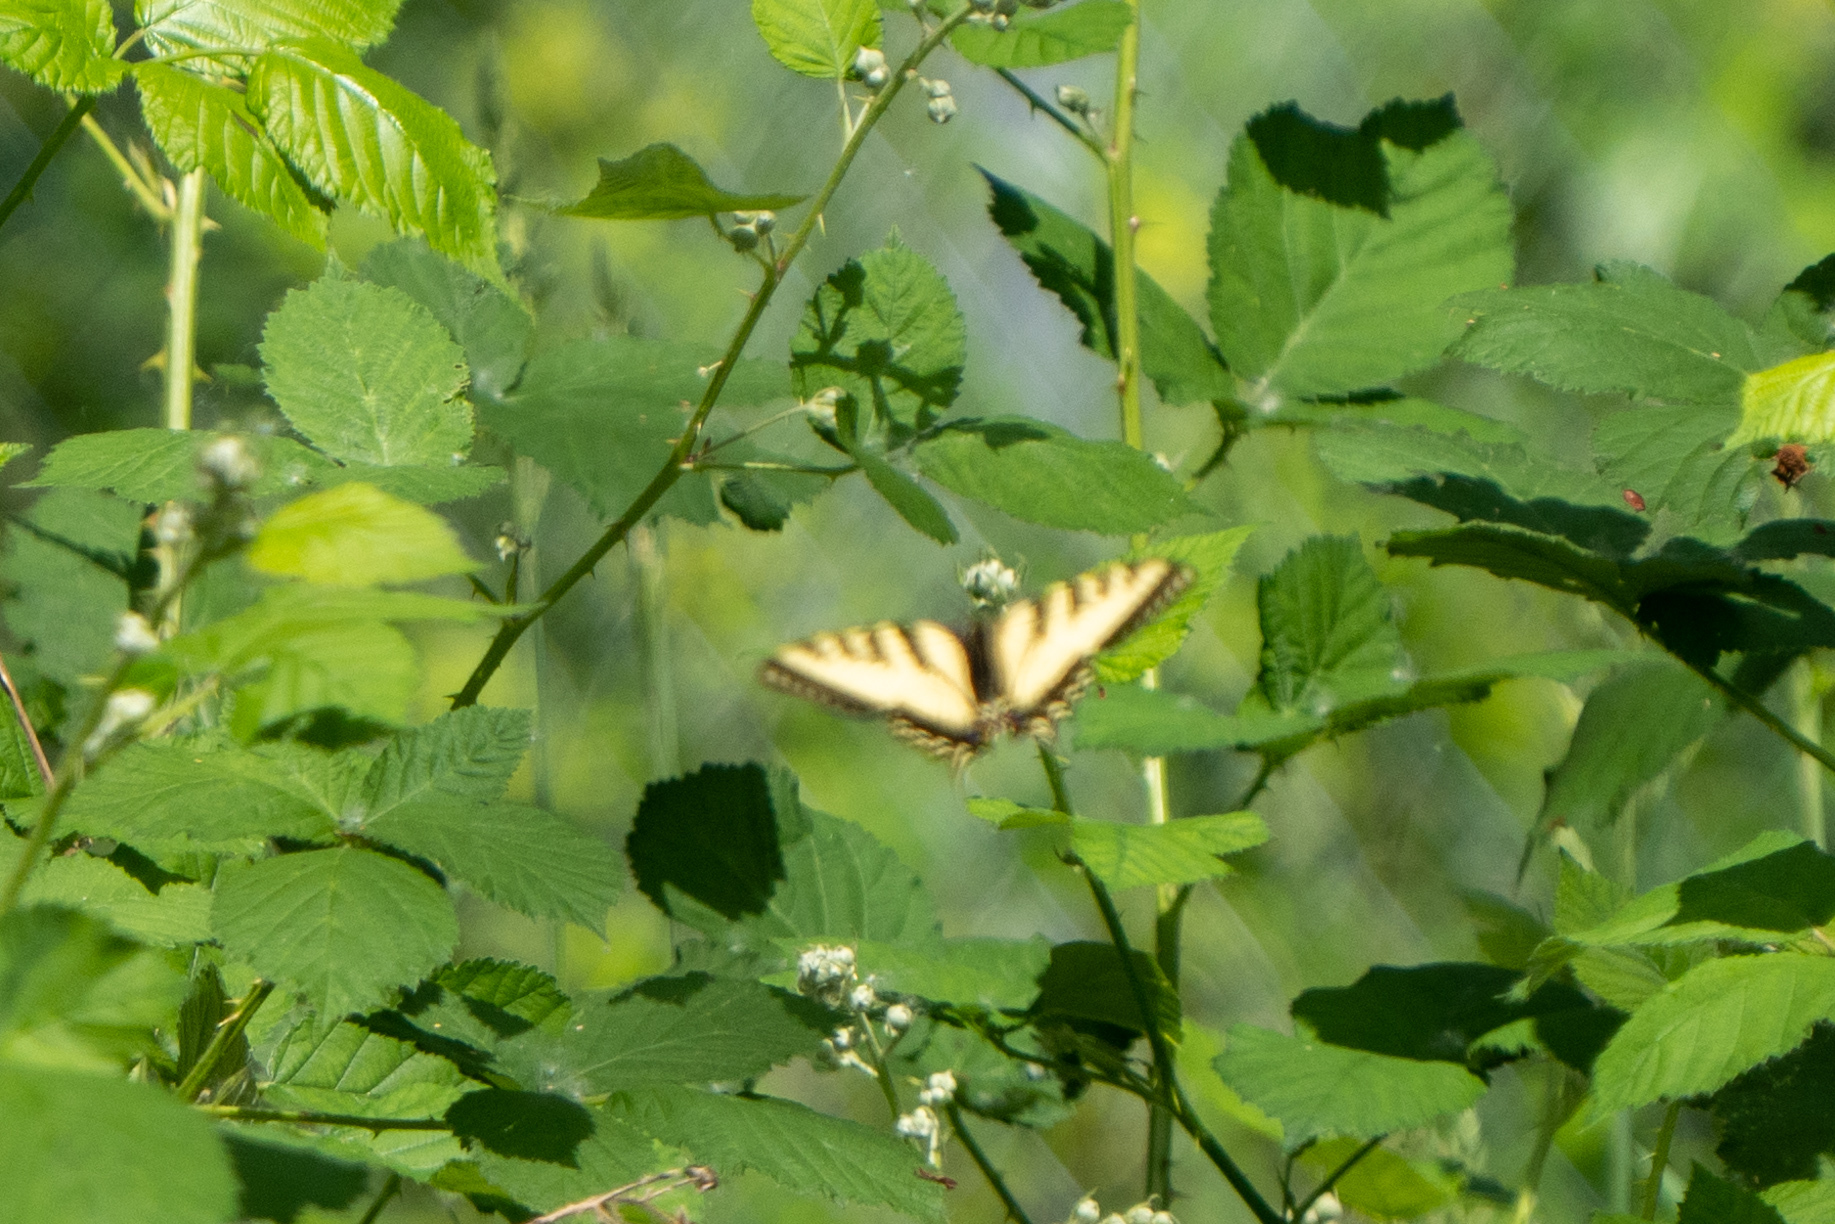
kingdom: Animalia
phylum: Arthropoda
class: Insecta
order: Lepidoptera
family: Papilionidae
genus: Papilio
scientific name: Papilio rutulus
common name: Western tiger swallowtail
